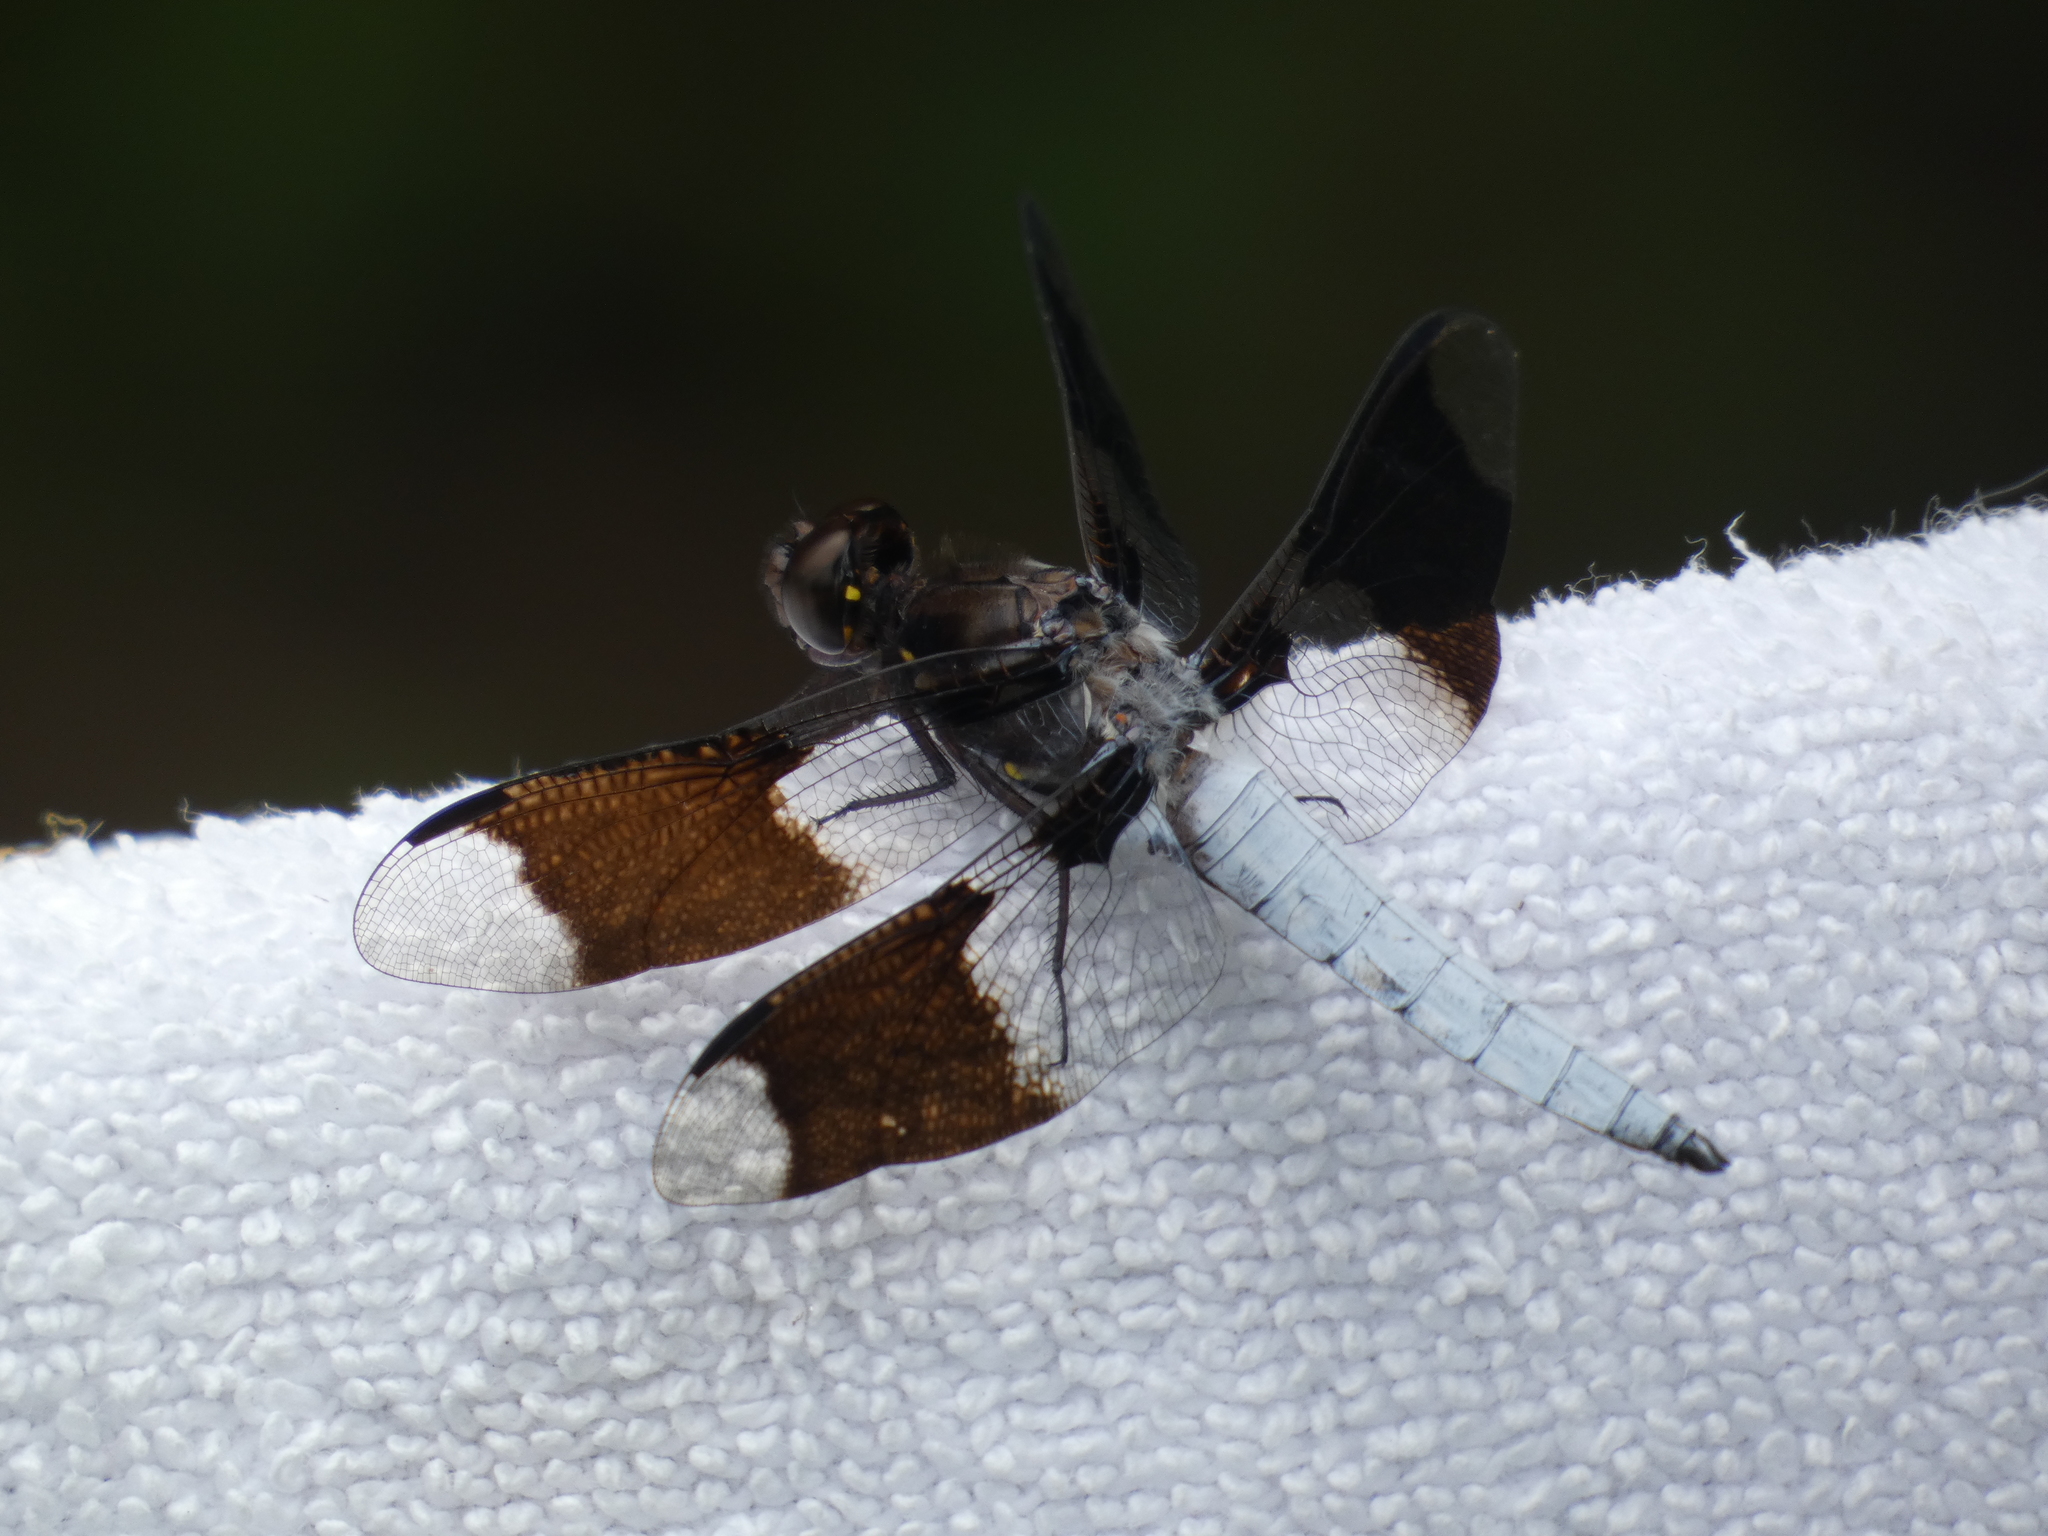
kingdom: Animalia
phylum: Arthropoda
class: Insecta
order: Odonata
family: Libellulidae
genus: Plathemis
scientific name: Plathemis lydia
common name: Common whitetail
